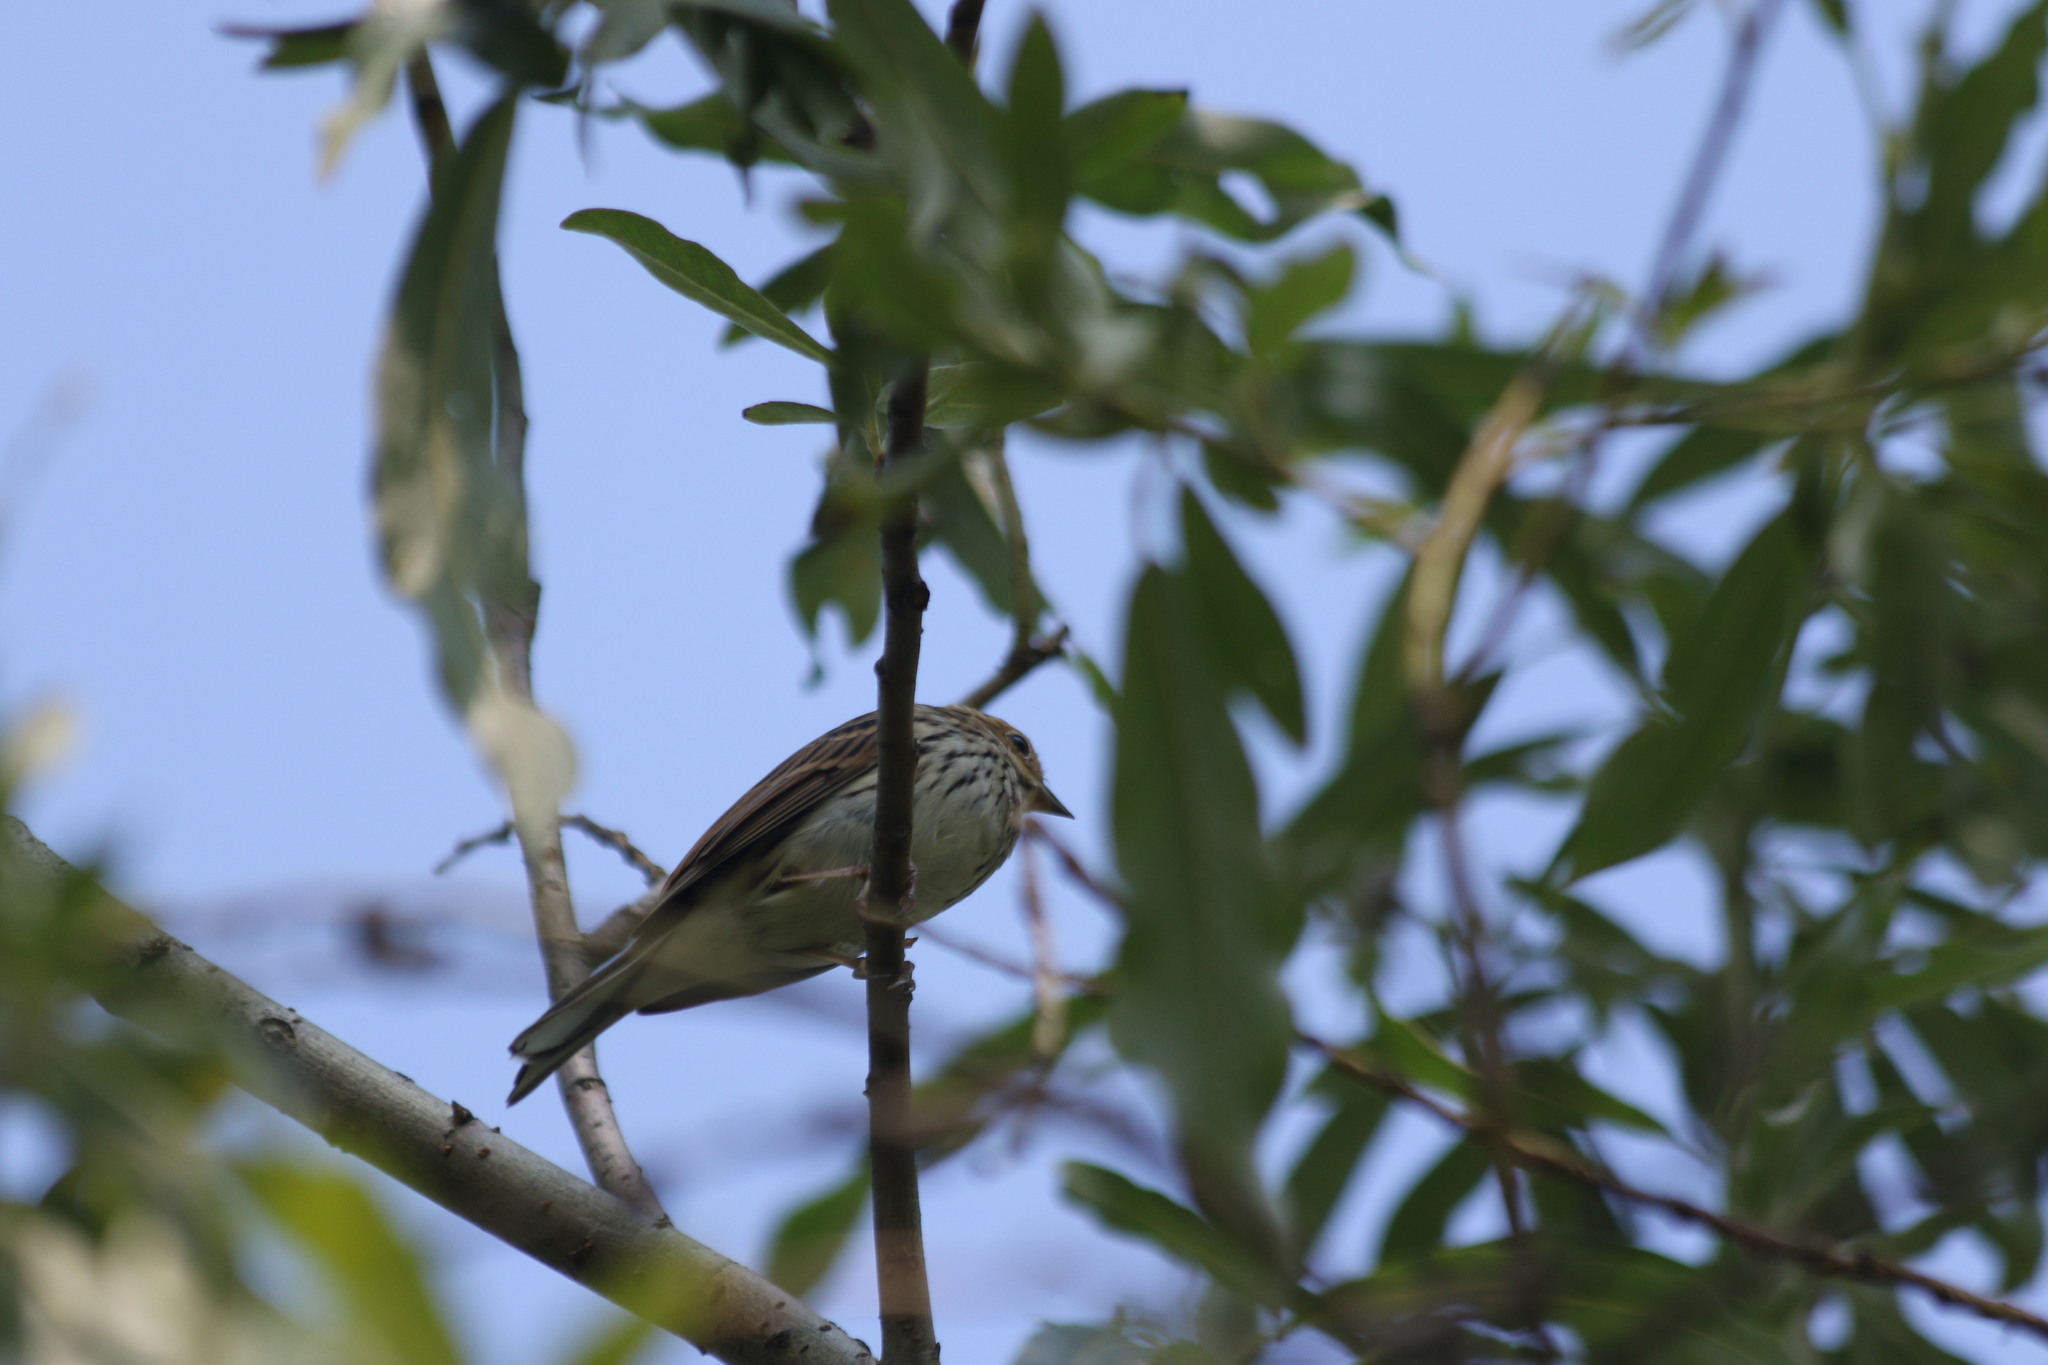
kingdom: Animalia
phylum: Chordata
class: Aves
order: Passeriformes
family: Emberizidae
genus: Emberiza
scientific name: Emberiza pusilla
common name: Little bunting
